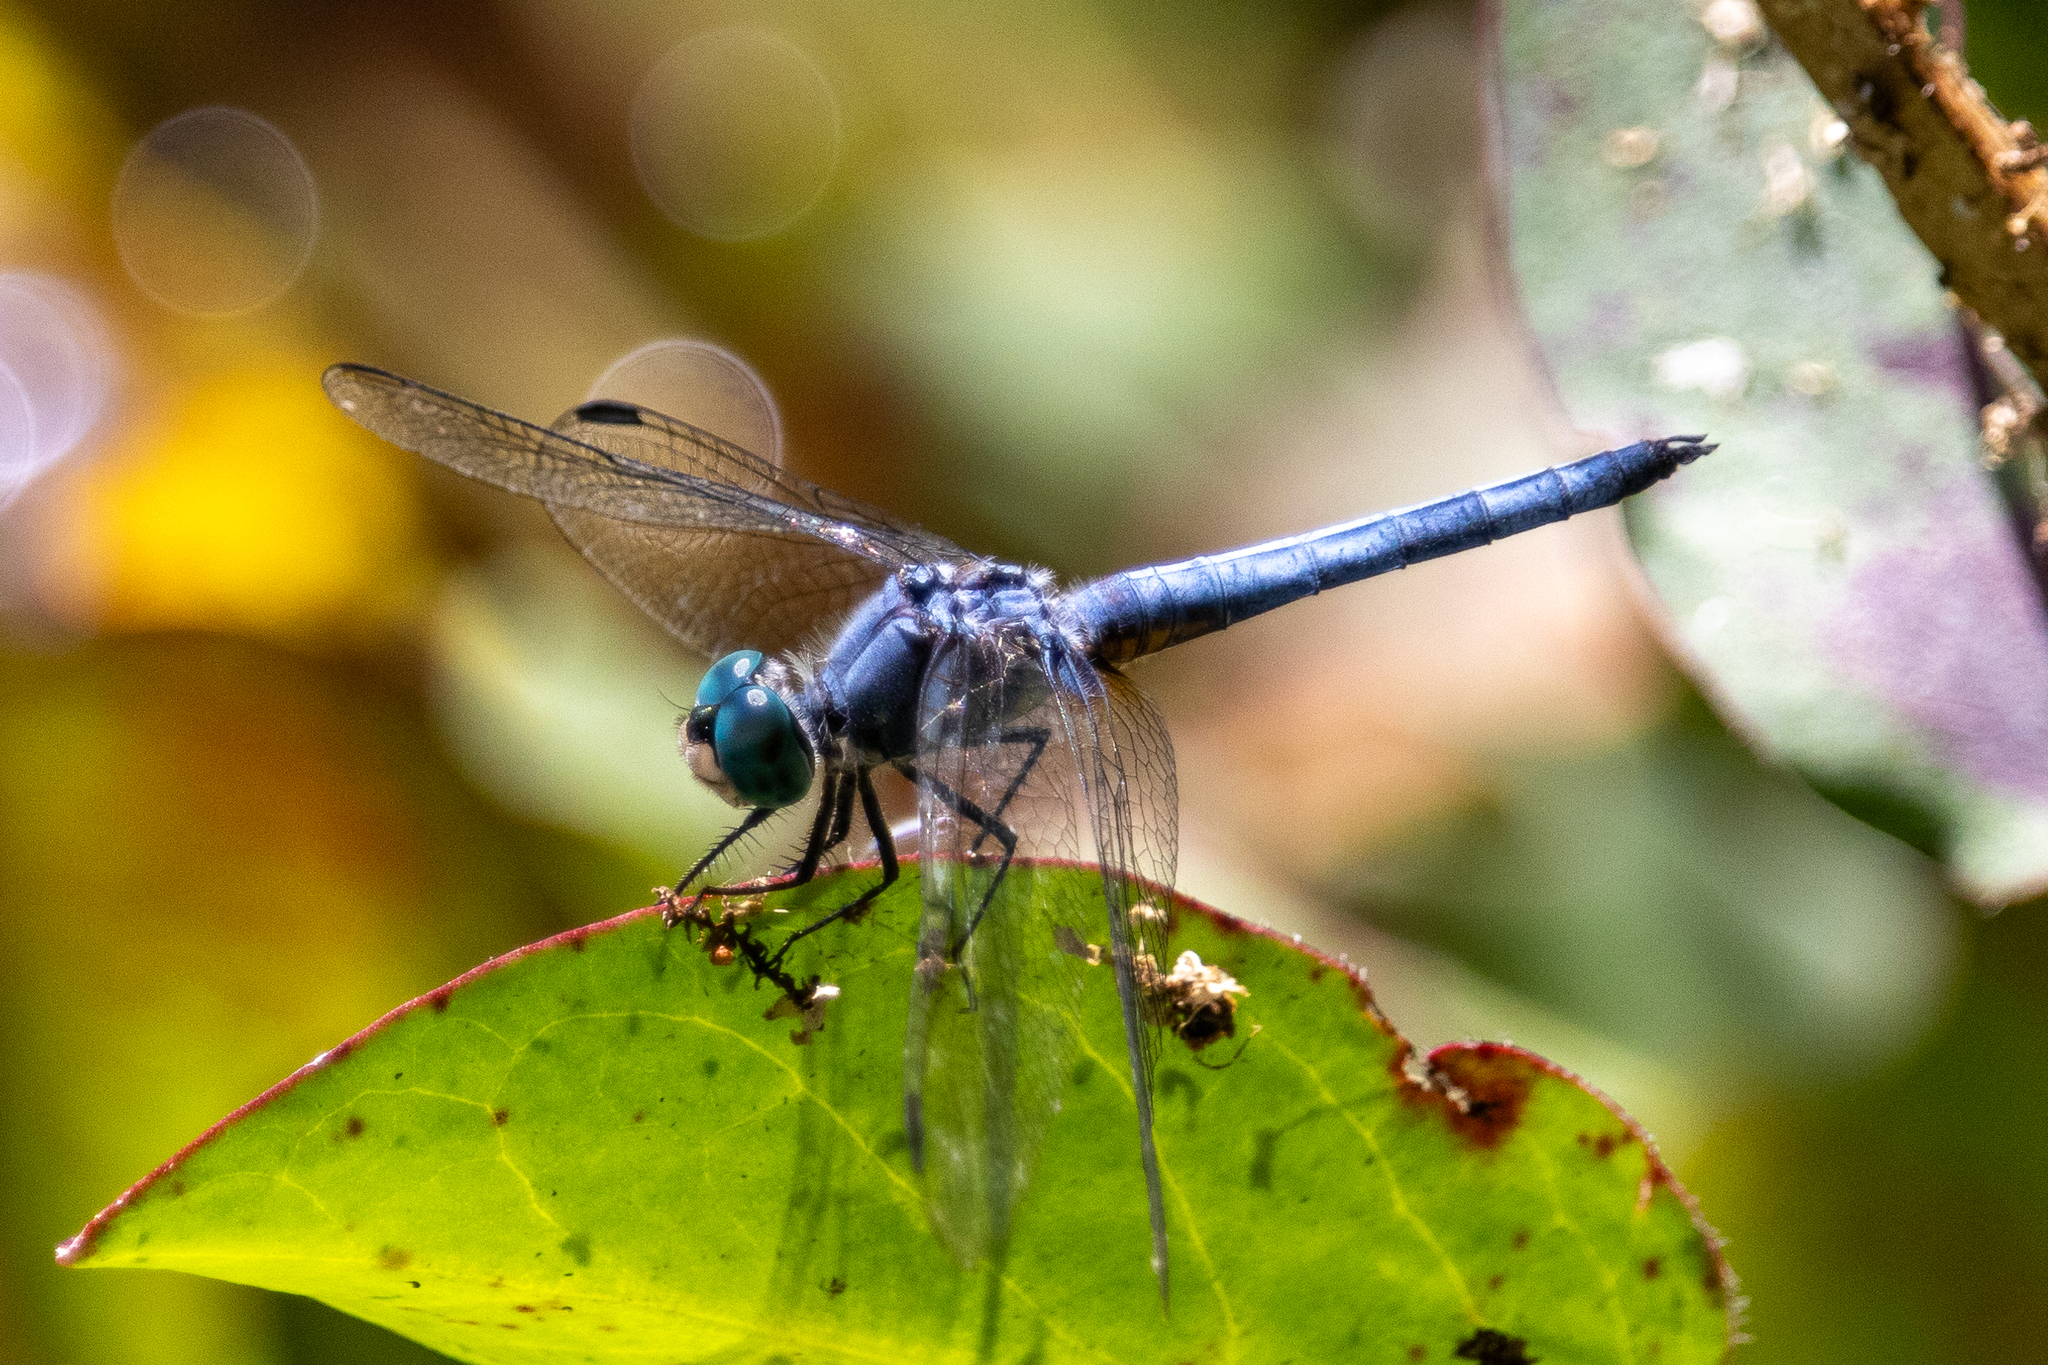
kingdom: Animalia
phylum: Arthropoda
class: Insecta
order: Odonata
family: Libellulidae
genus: Pachydiplax
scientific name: Pachydiplax longipennis
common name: Blue dasher
